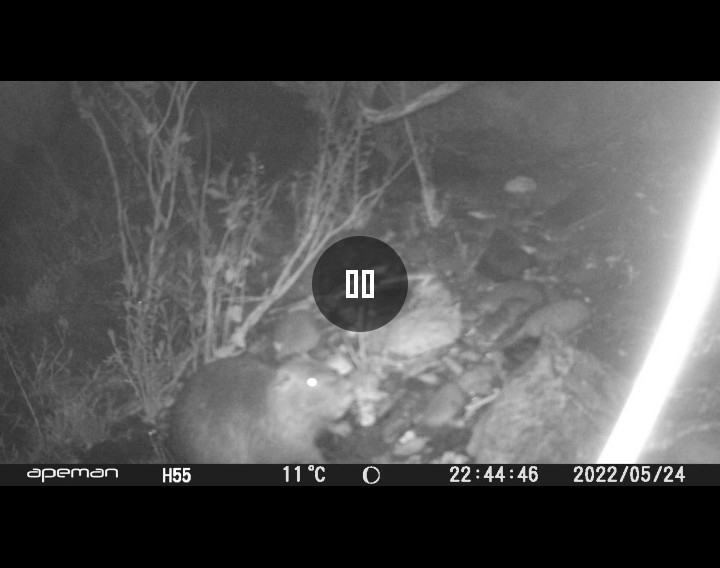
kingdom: Animalia
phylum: Chordata
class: Mammalia
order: Rodentia
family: Myocastoridae
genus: Myocastor
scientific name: Myocastor coypus
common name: Coypu
